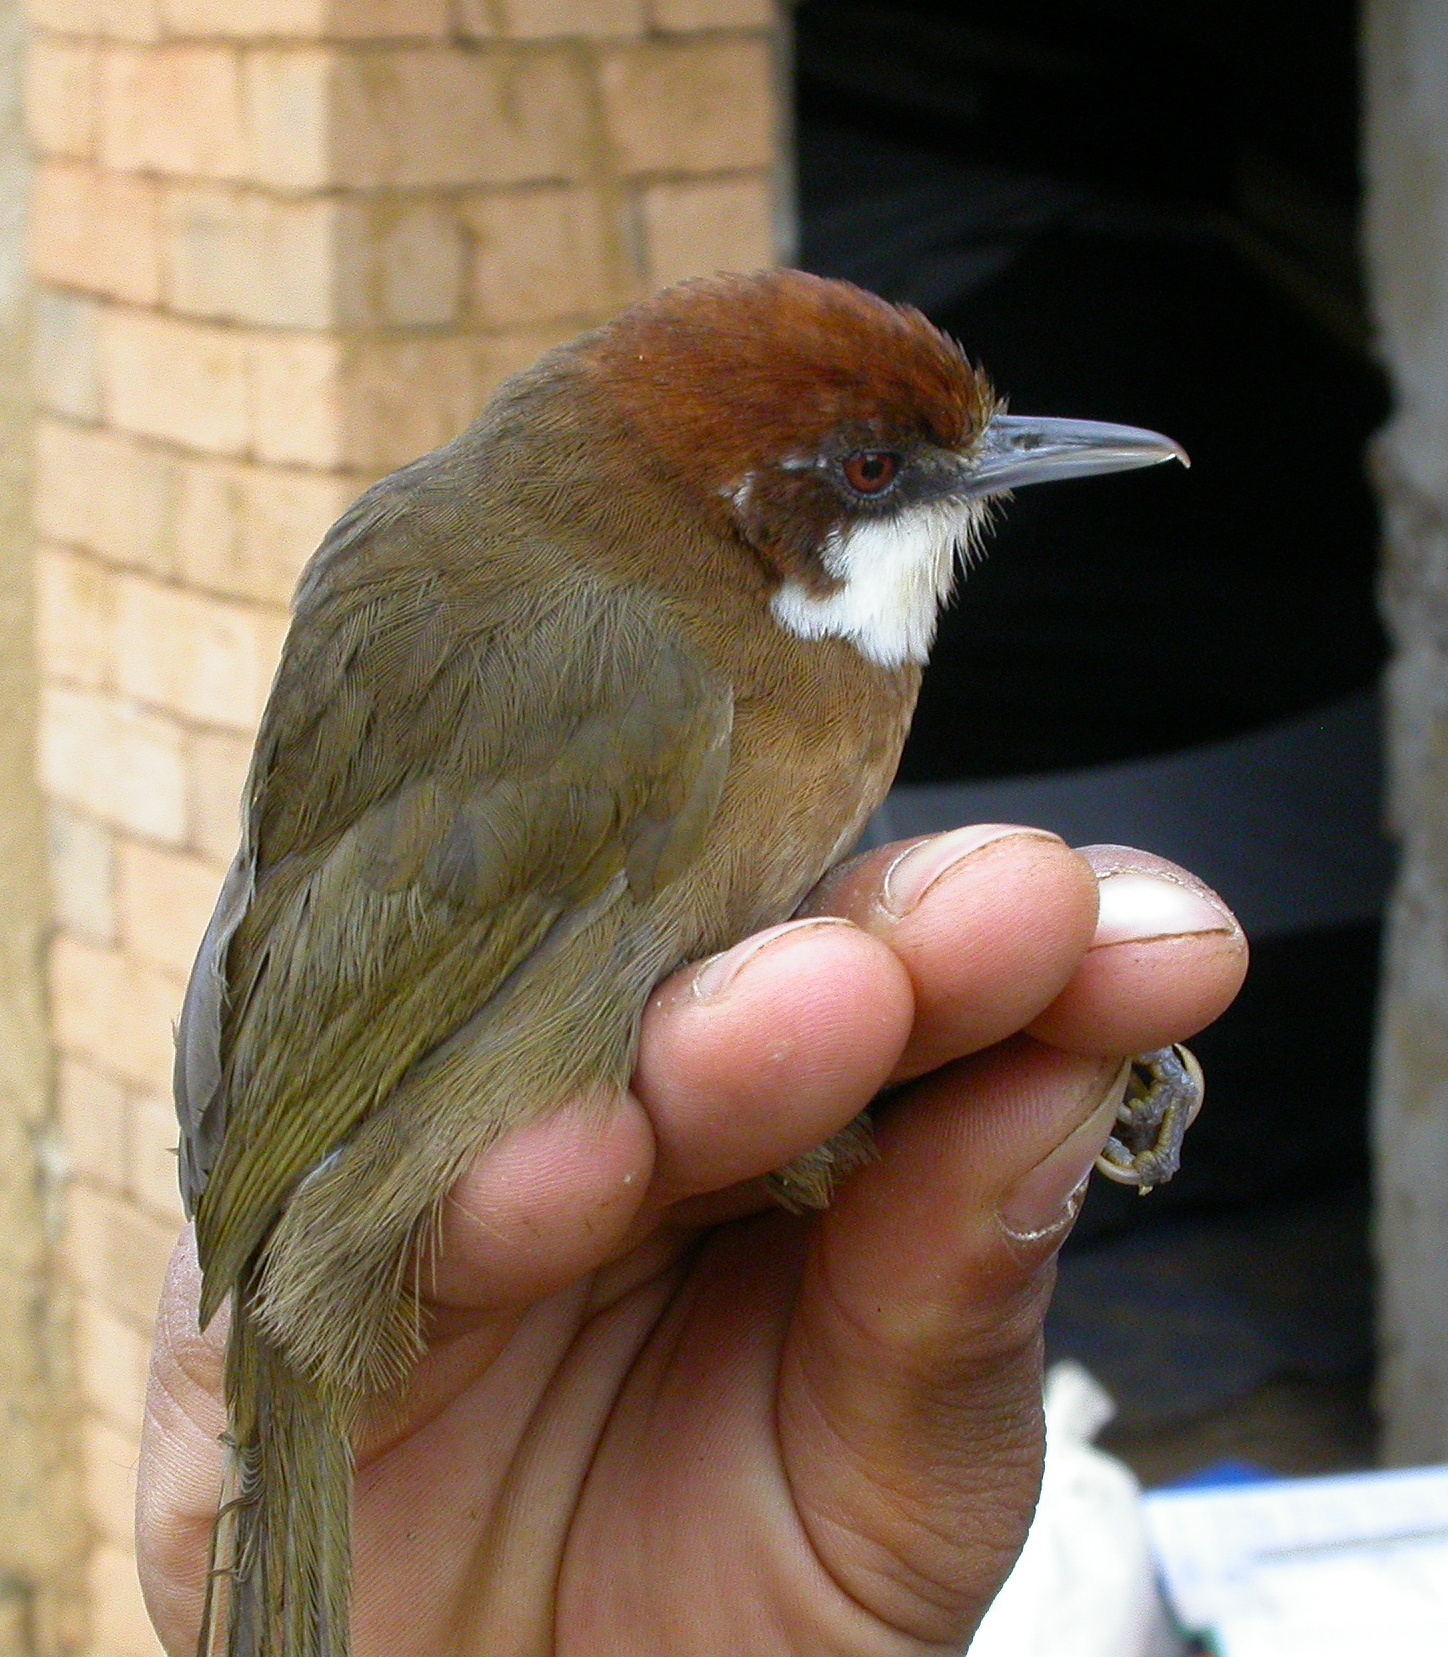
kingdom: Animalia
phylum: Chordata
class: Aves
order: Passeriformes
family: Bernieridae
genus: Oxylabes
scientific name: Oxylabes madagascariensis
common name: White-throated oxylabes
